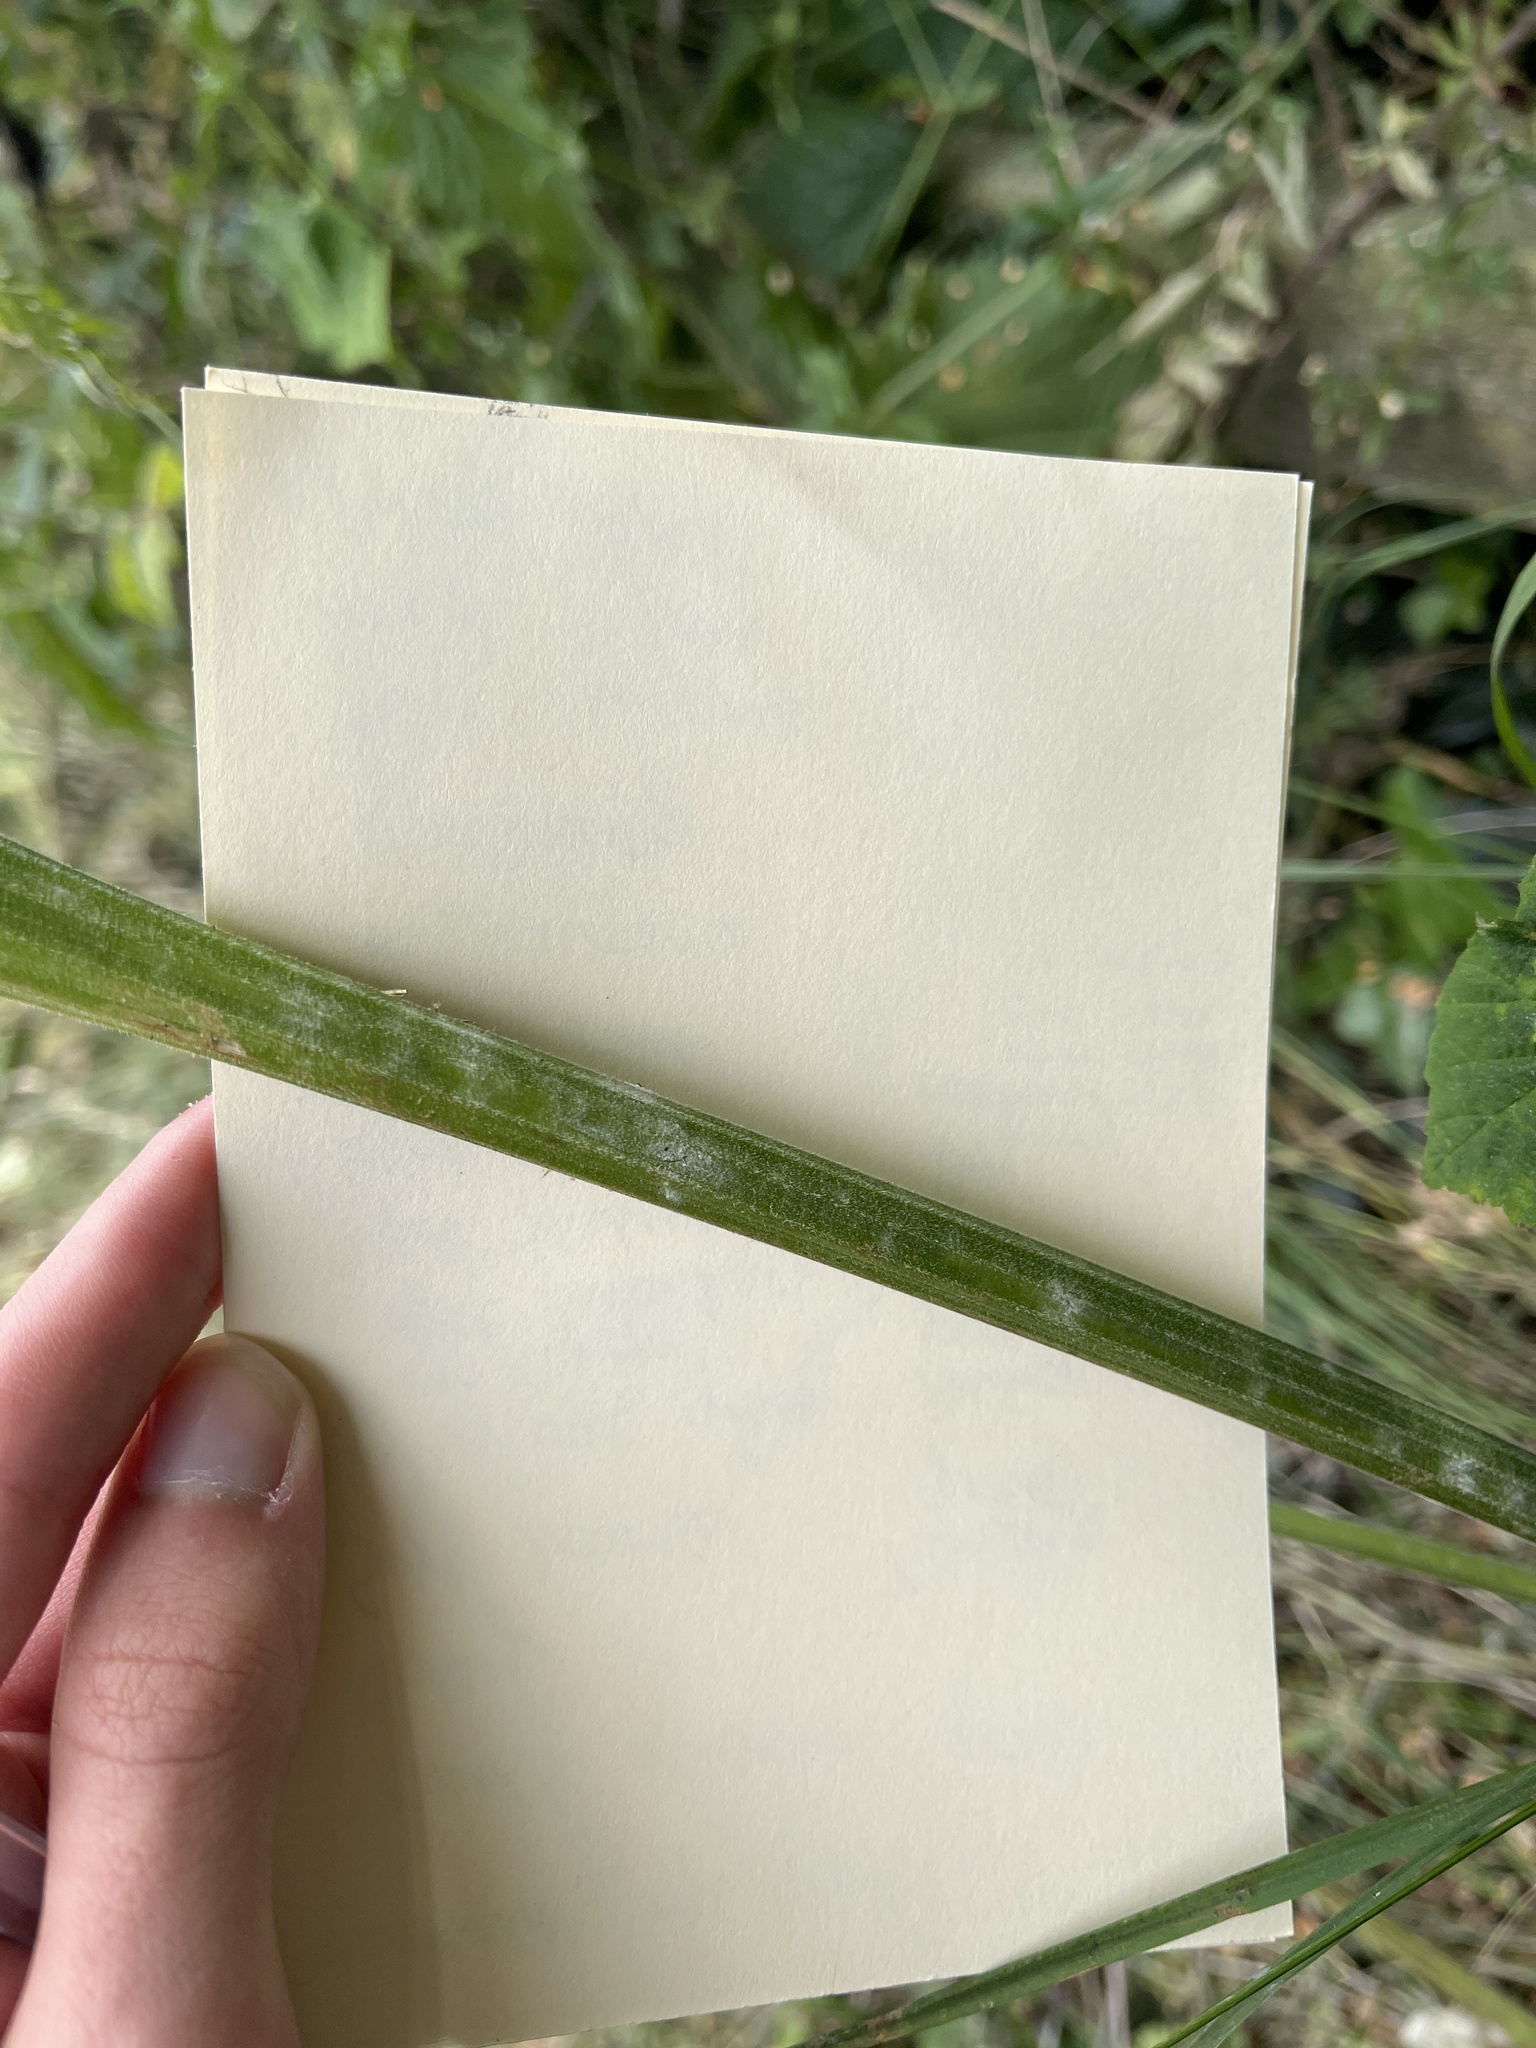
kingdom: Fungi
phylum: Ascomycota
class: Leotiomycetes
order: Helotiales
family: Erysiphaceae
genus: Erysiphe
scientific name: Erysiphe heraclei
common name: Umbellifer mildew
